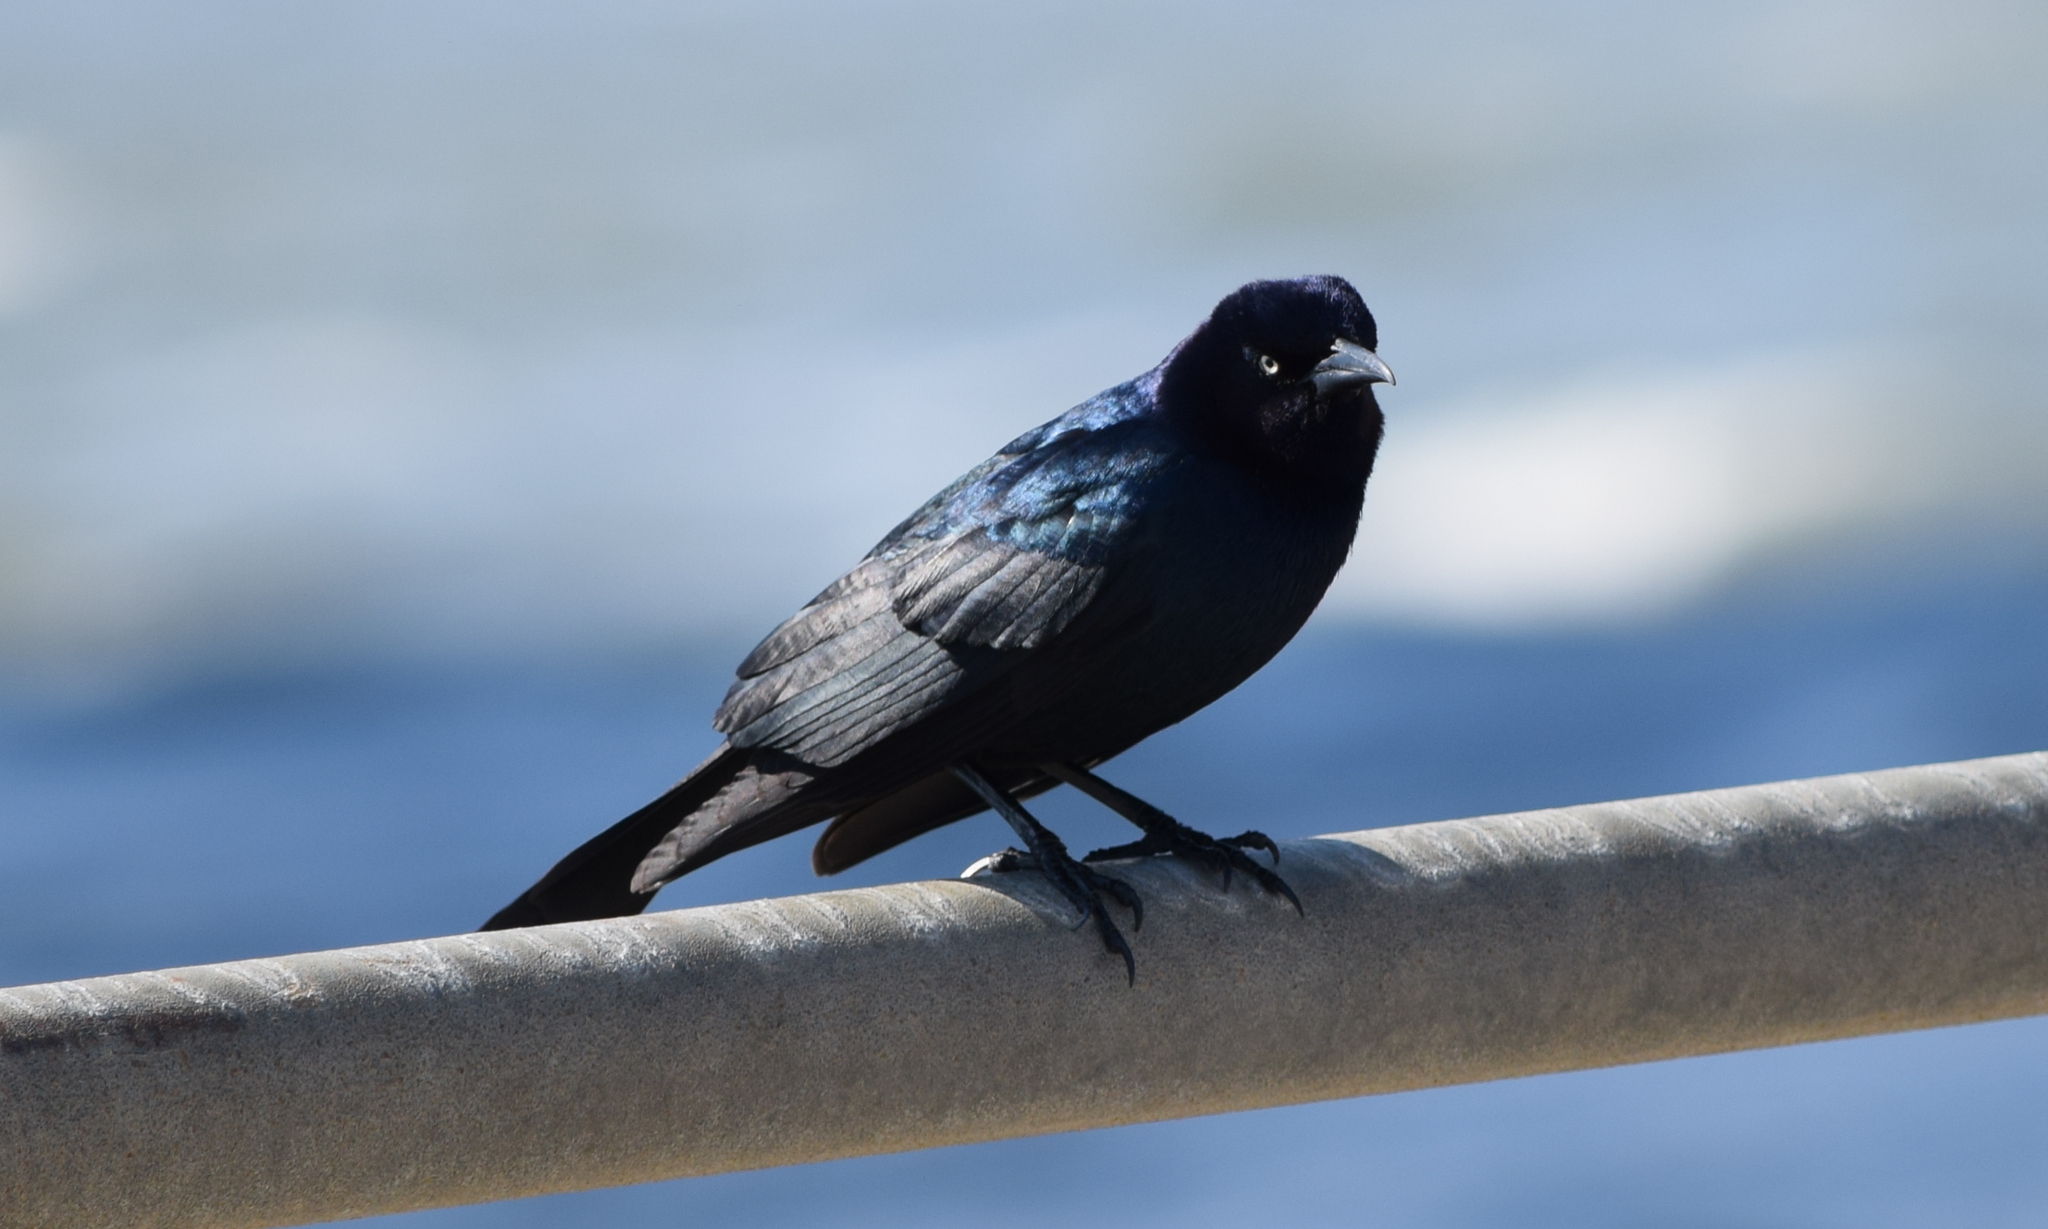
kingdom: Animalia
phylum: Chordata
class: Aves
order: Passeriformes
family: Icteridae
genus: Quiscalus
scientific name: Quiscalus major
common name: Boat-tailed grackle
